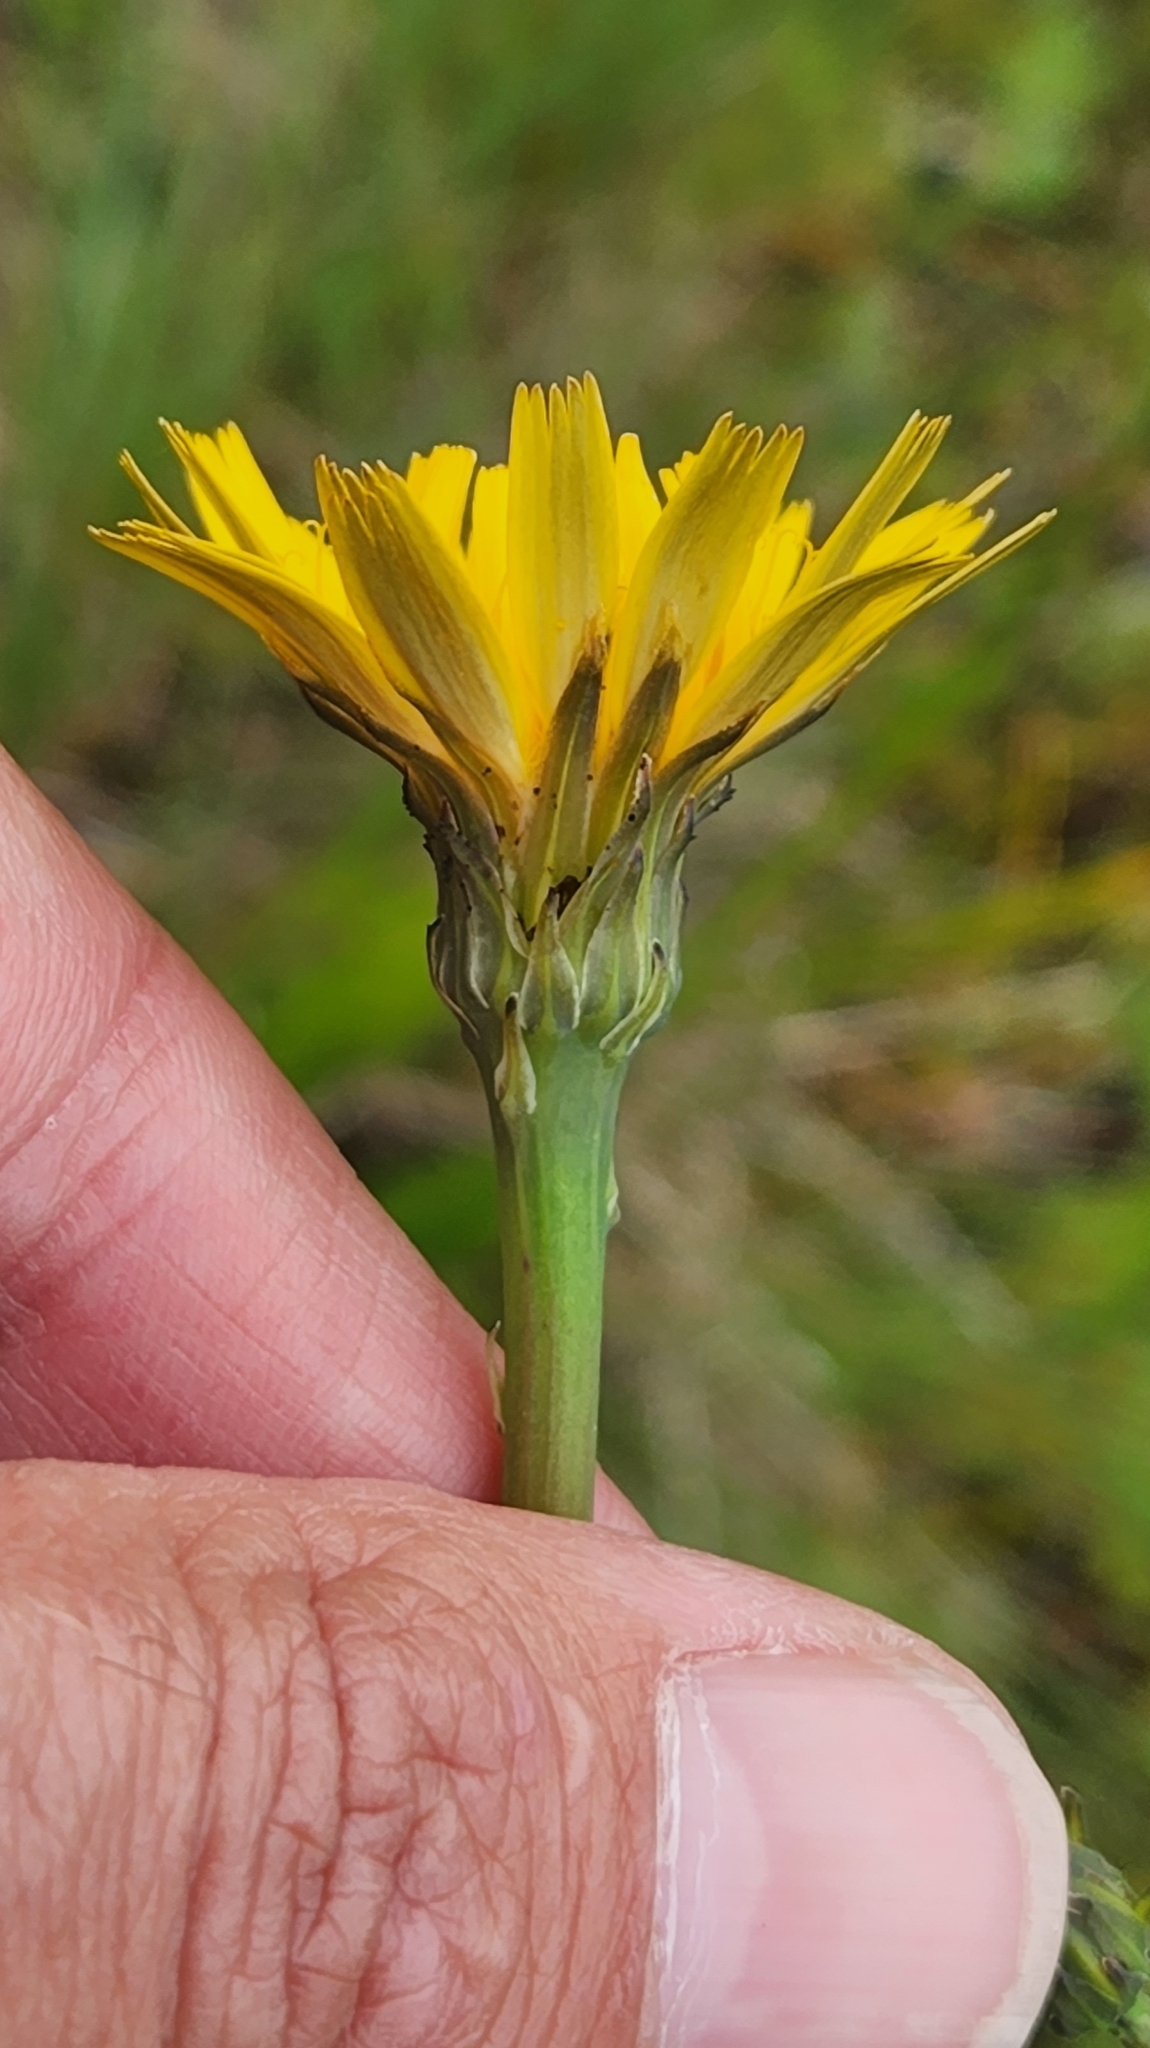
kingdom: Plantae
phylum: Tracheophyta
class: Magnoliopsida
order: Asterales
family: Asteraceae
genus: Hypochaeris
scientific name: Hypochaeris radicata
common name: Flatweed
